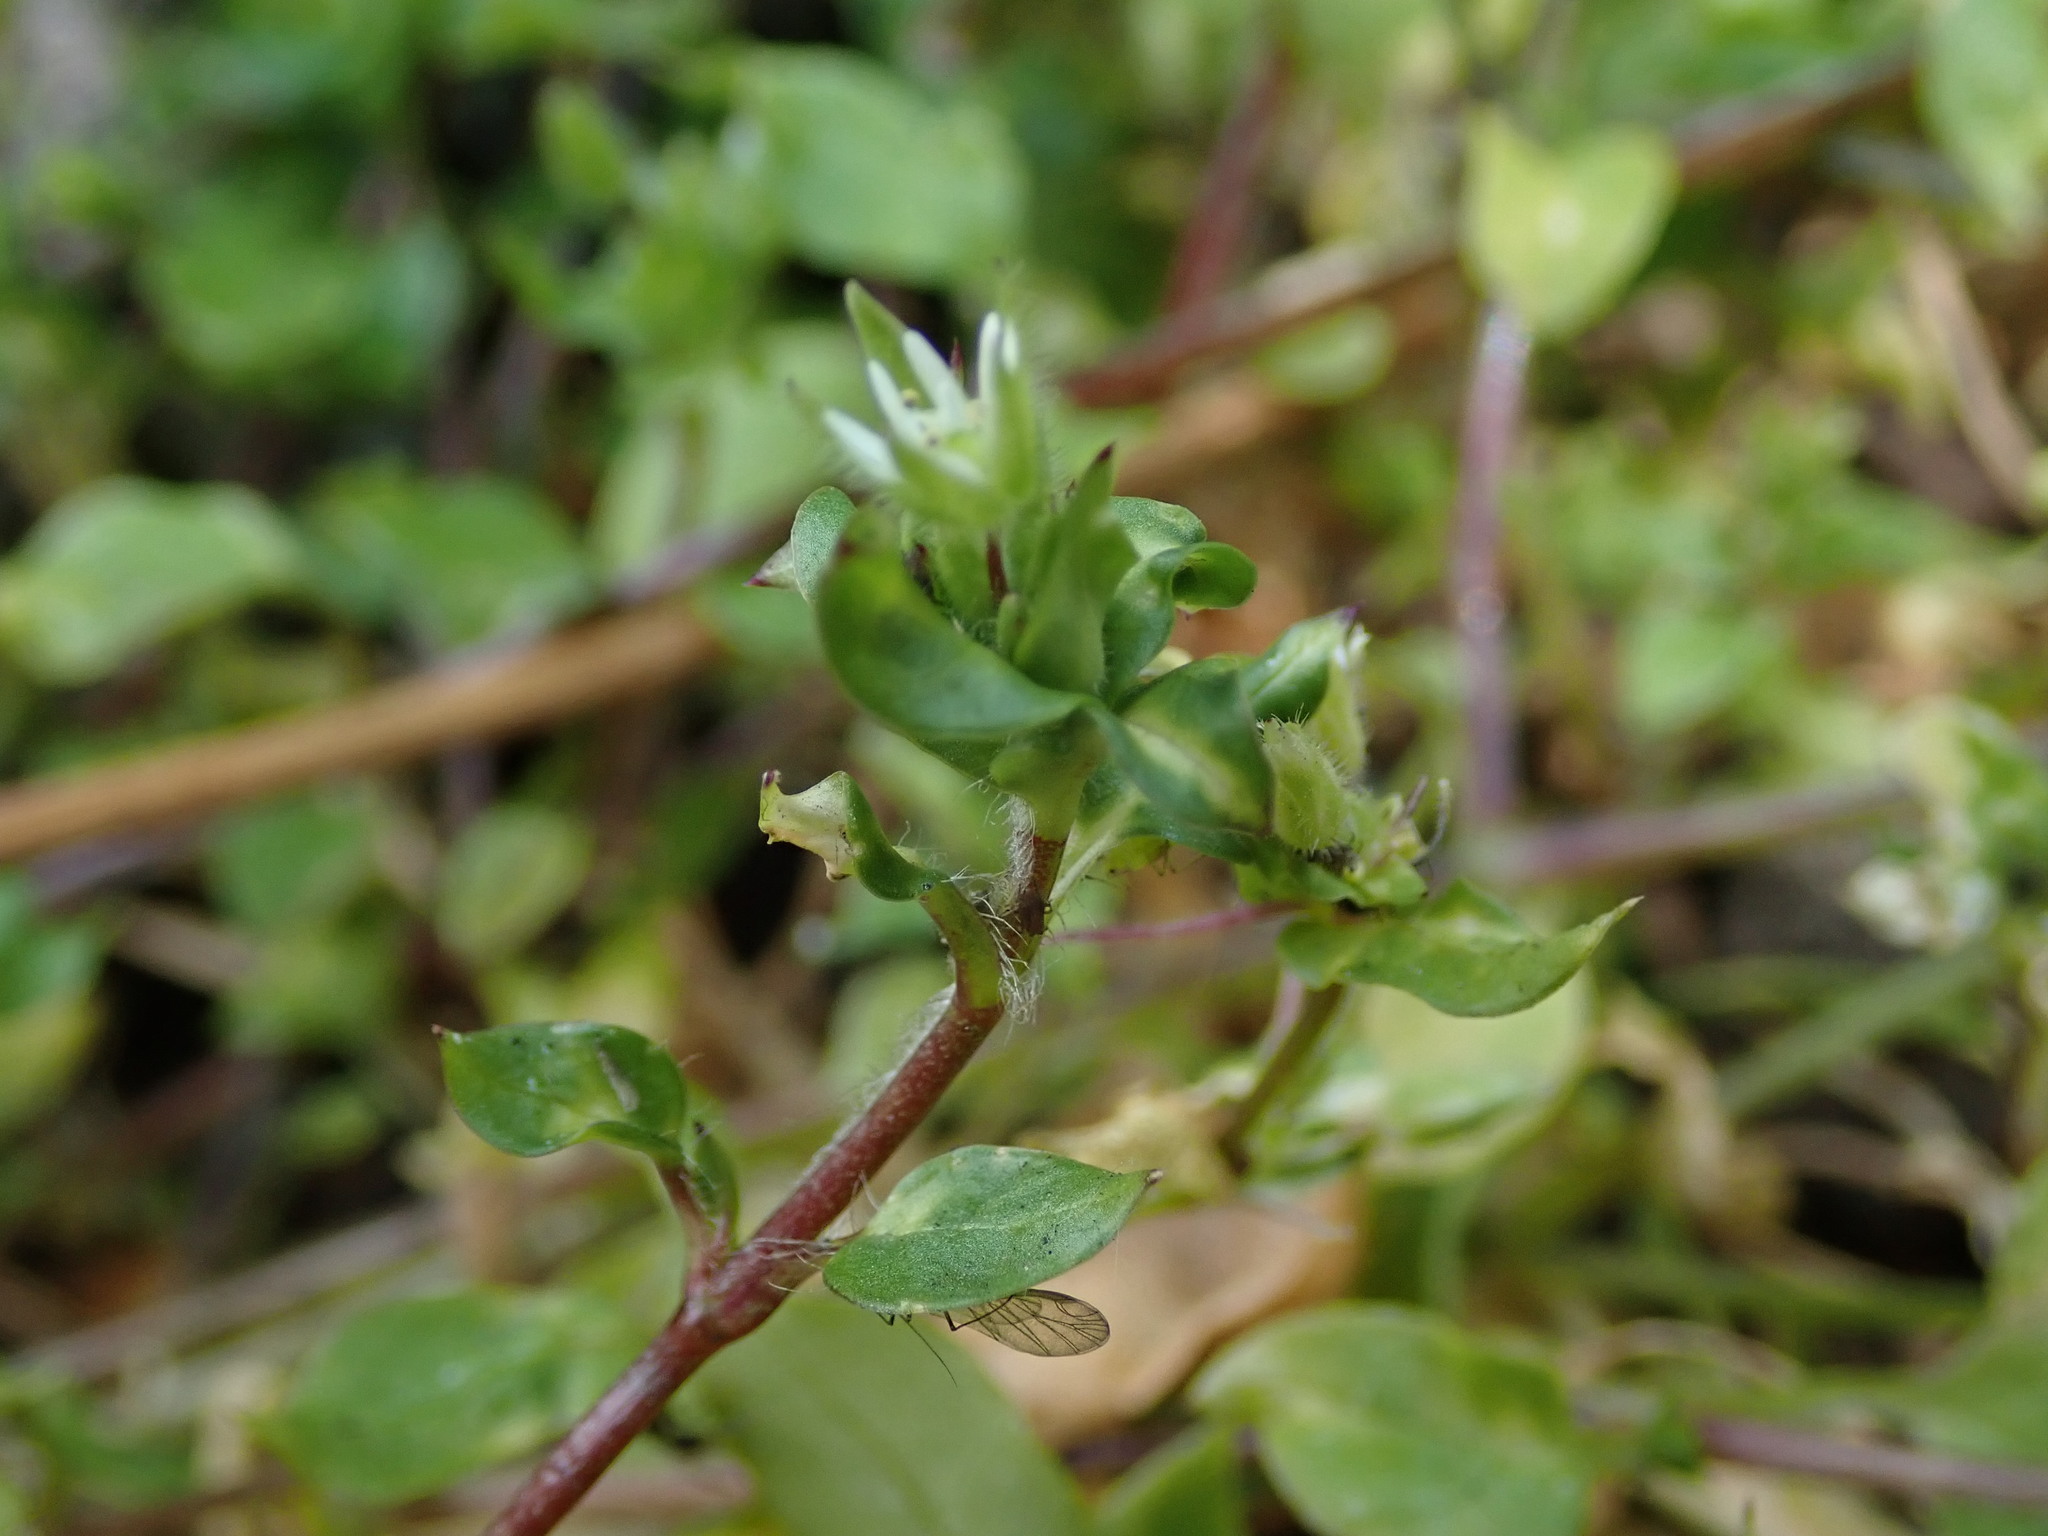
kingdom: Plantae
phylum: Tracheophyta
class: Magnoliopsida
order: Caryophyllales
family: Caryophyllaceae
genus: Stellaria
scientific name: Stellaria media
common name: Common chickweed
